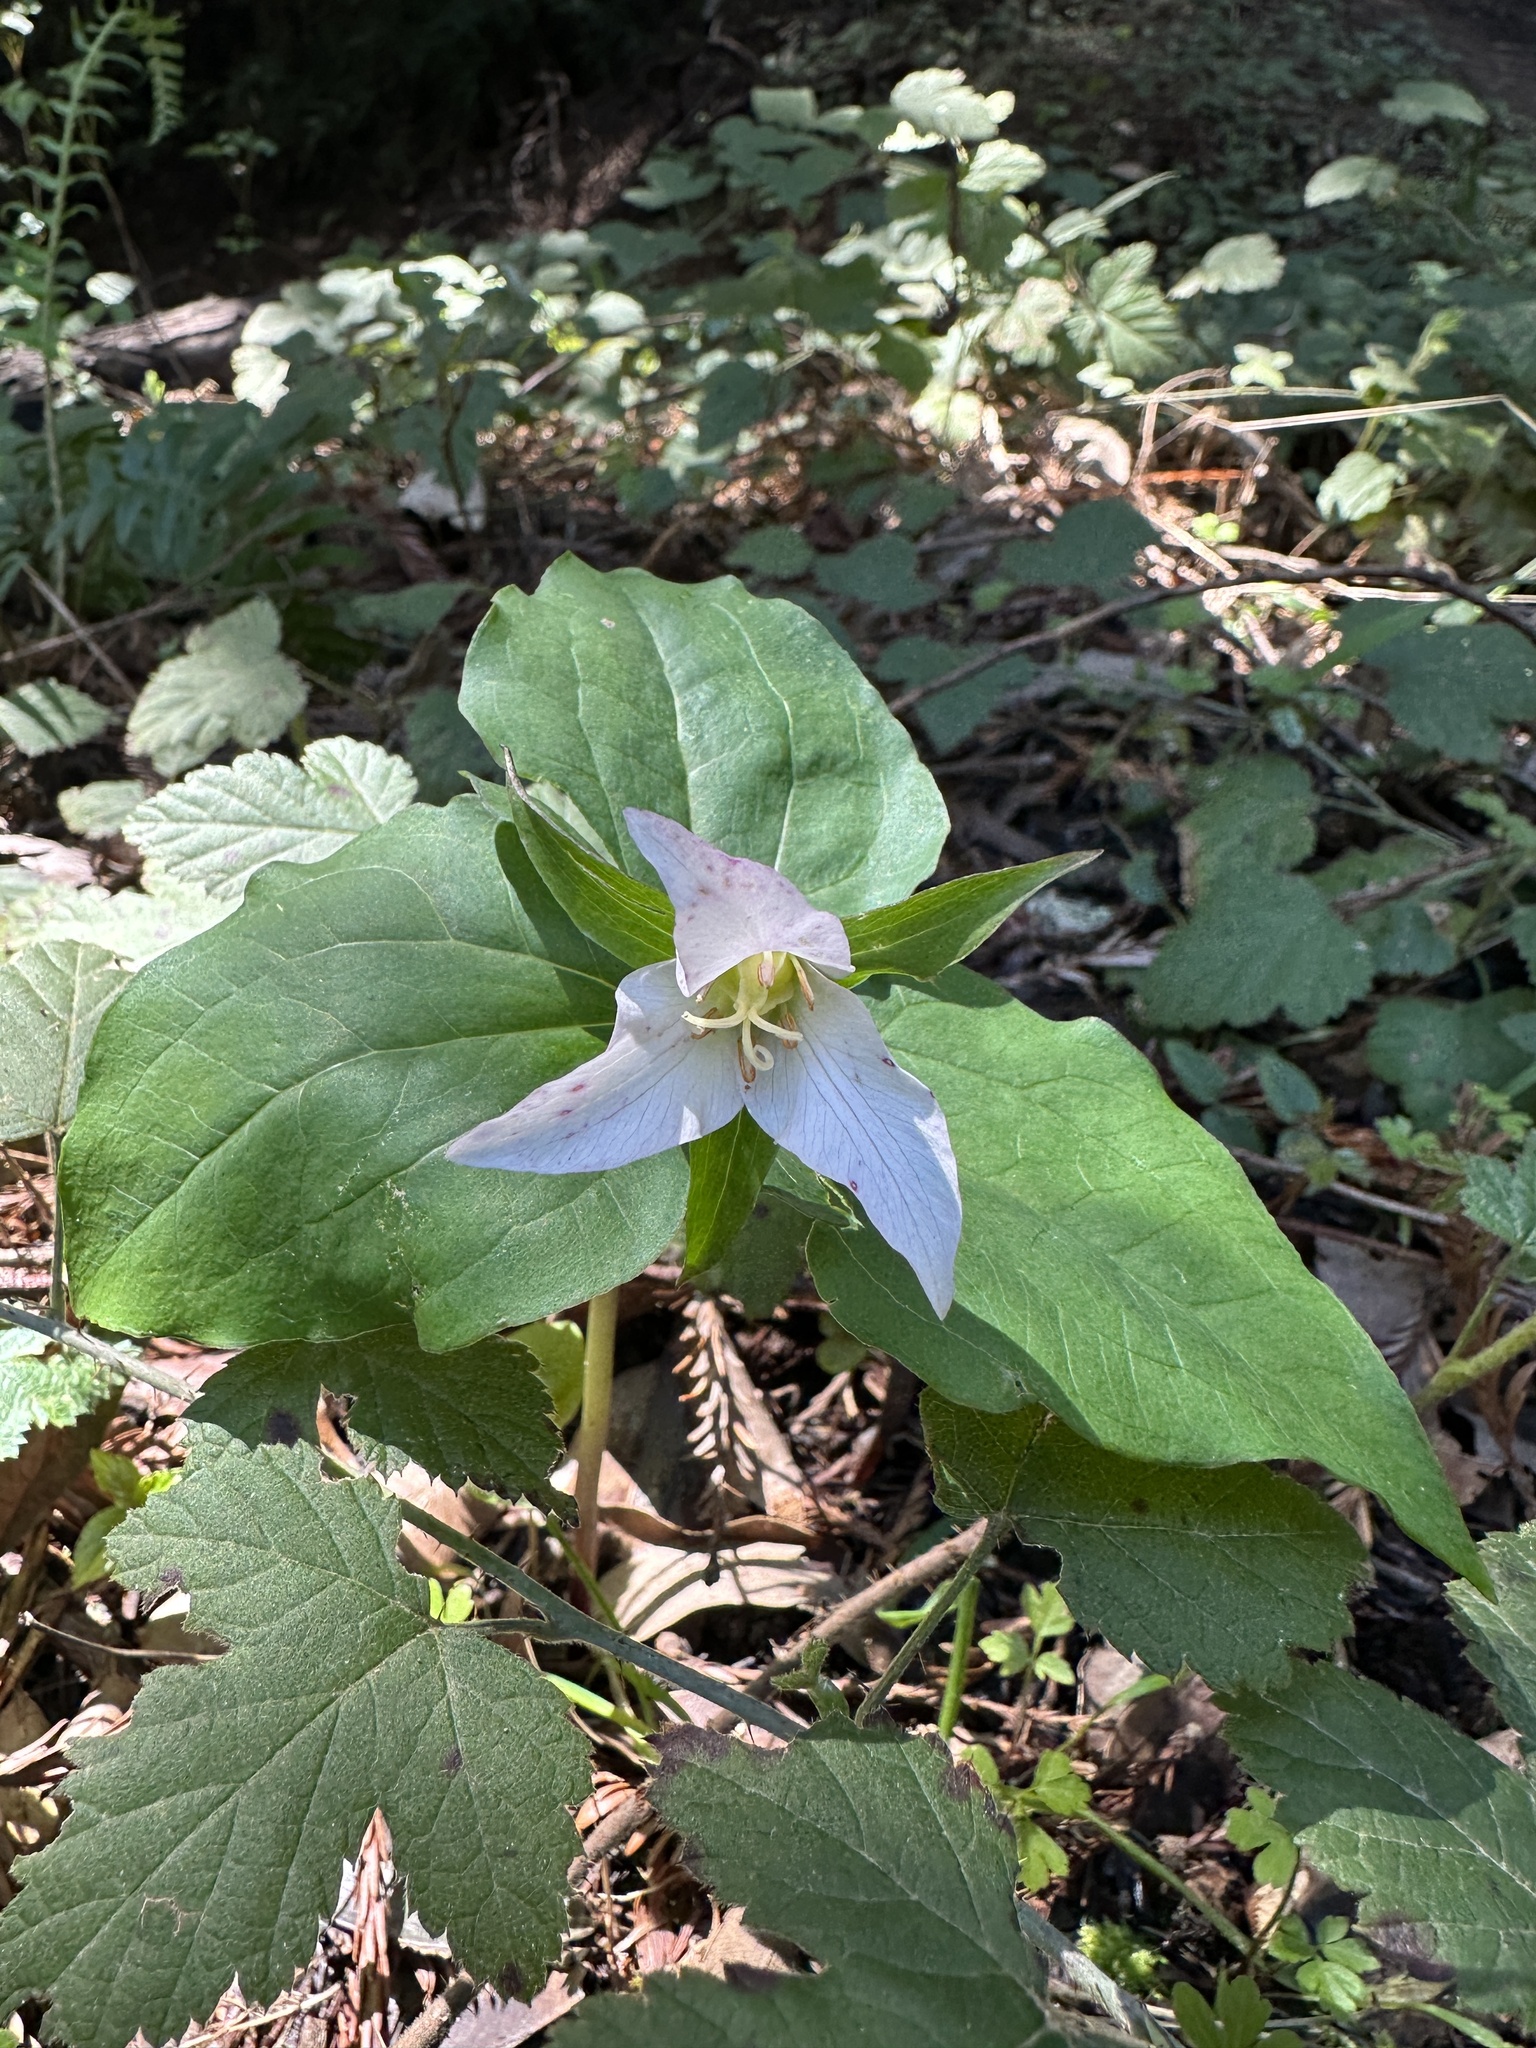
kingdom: Plantae
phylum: Tracheophyta
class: Liliopsida
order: Liliales
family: Melanthiaceae
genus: Trillium
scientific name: Trillium ovatum
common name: Pacific trillium
